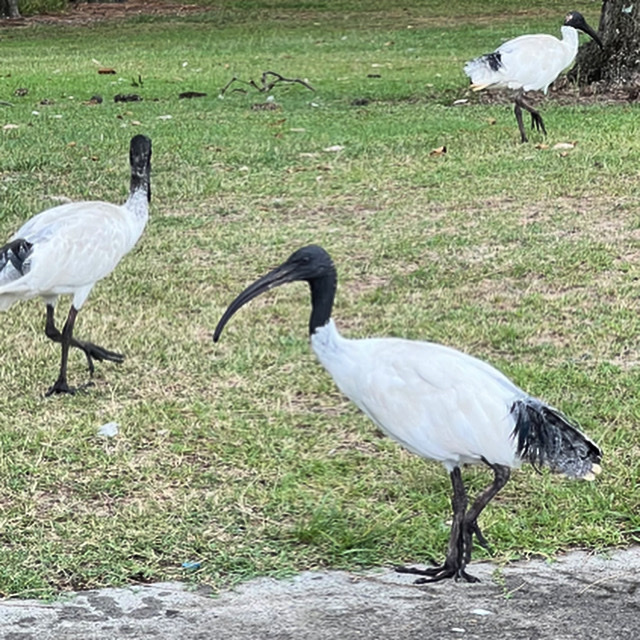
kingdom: Animalia
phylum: Chordata
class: Aves
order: Pelecaniformes
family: Threskiornithidae
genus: Threskiornis
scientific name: Threskiornis molucca
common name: Australian white ibis
